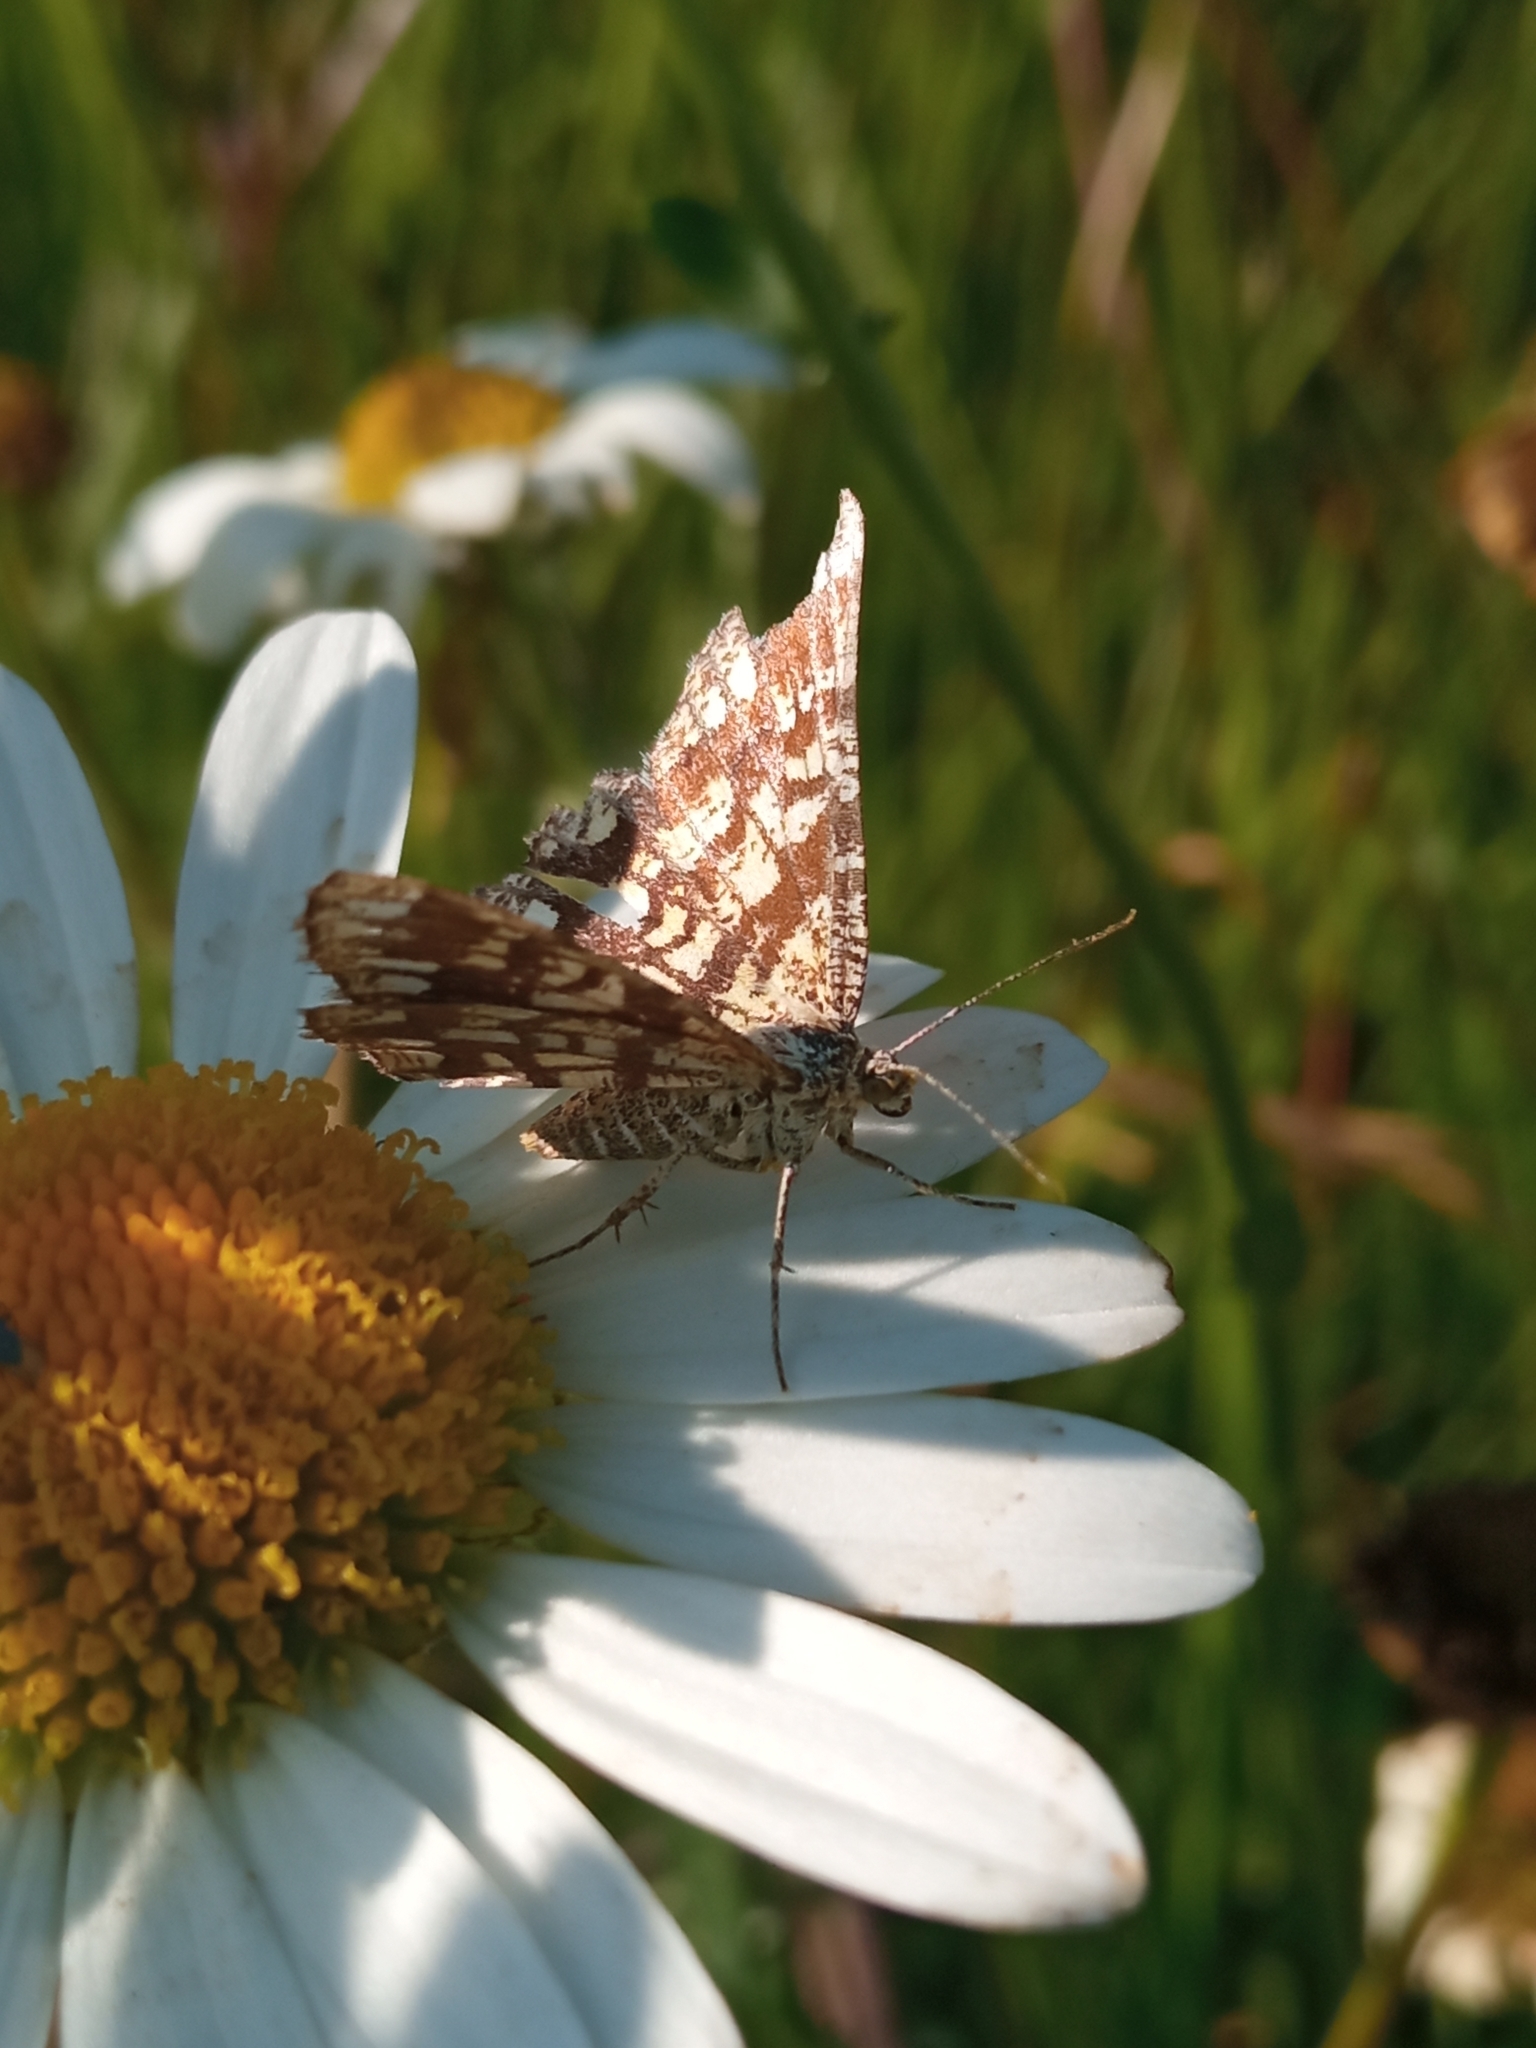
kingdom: Animalia
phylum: Arthropoda
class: Insecta
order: Lepidoptera
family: Geometridae
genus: Chiasmia
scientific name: Chiasmia clathrata
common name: Latticed heath
